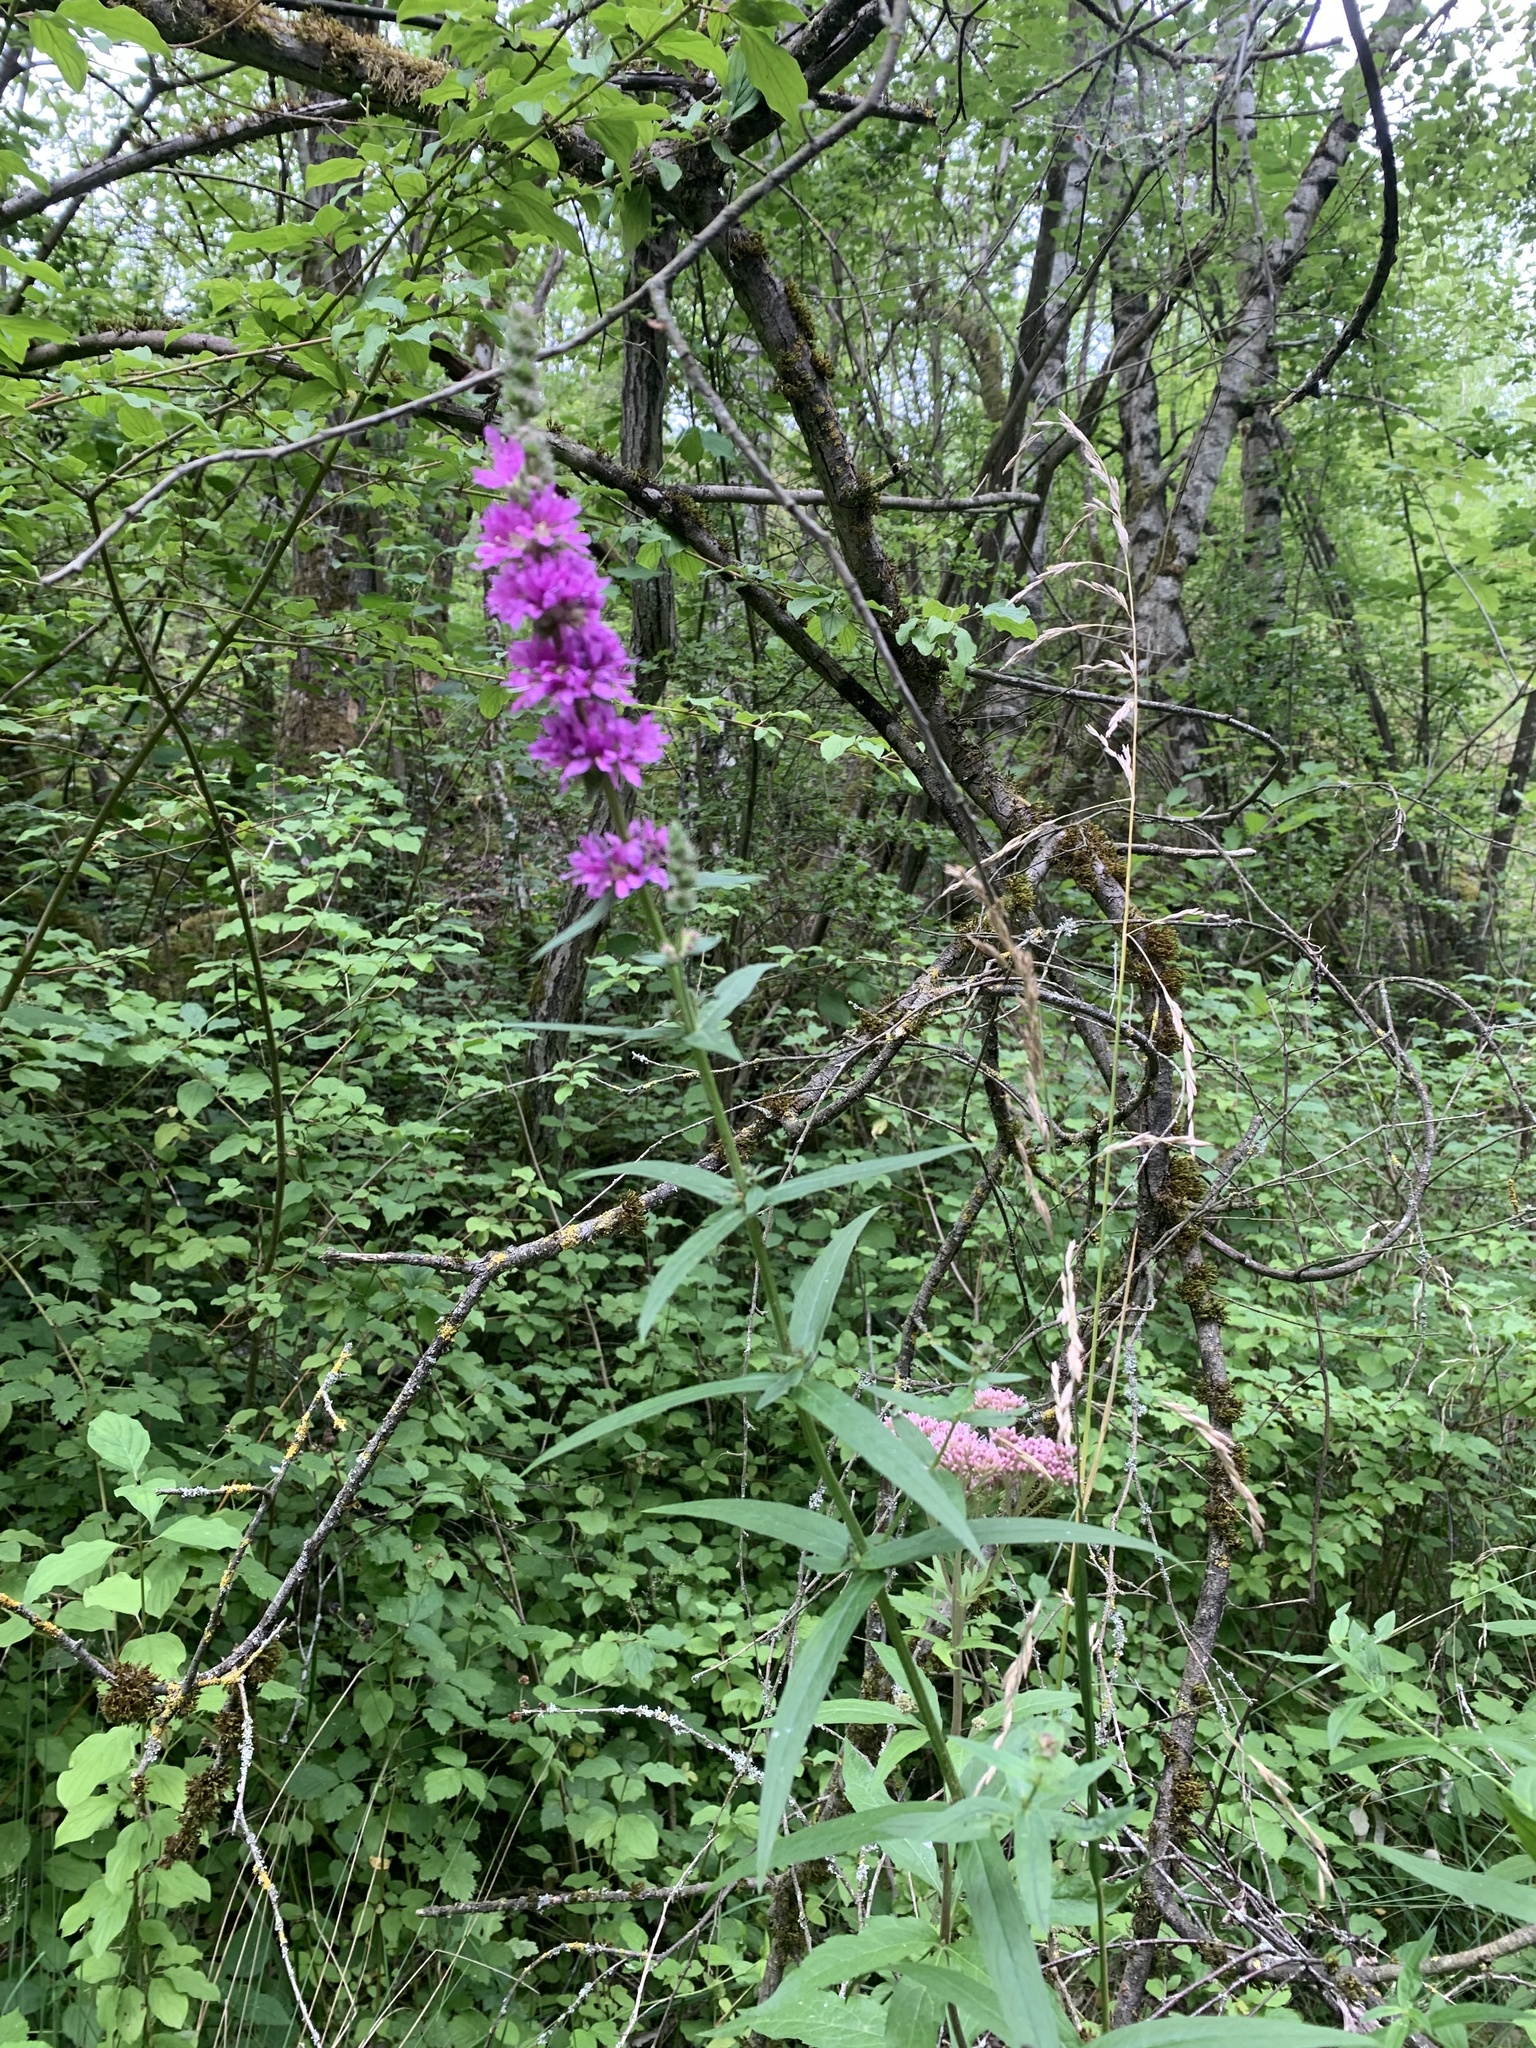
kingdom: Plantae
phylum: Tracheophyta
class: Magnoliopsida
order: Myrtales
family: Lythraceae
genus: Lythrum
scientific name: Lythrum salicaria
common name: Purple loosestrife
